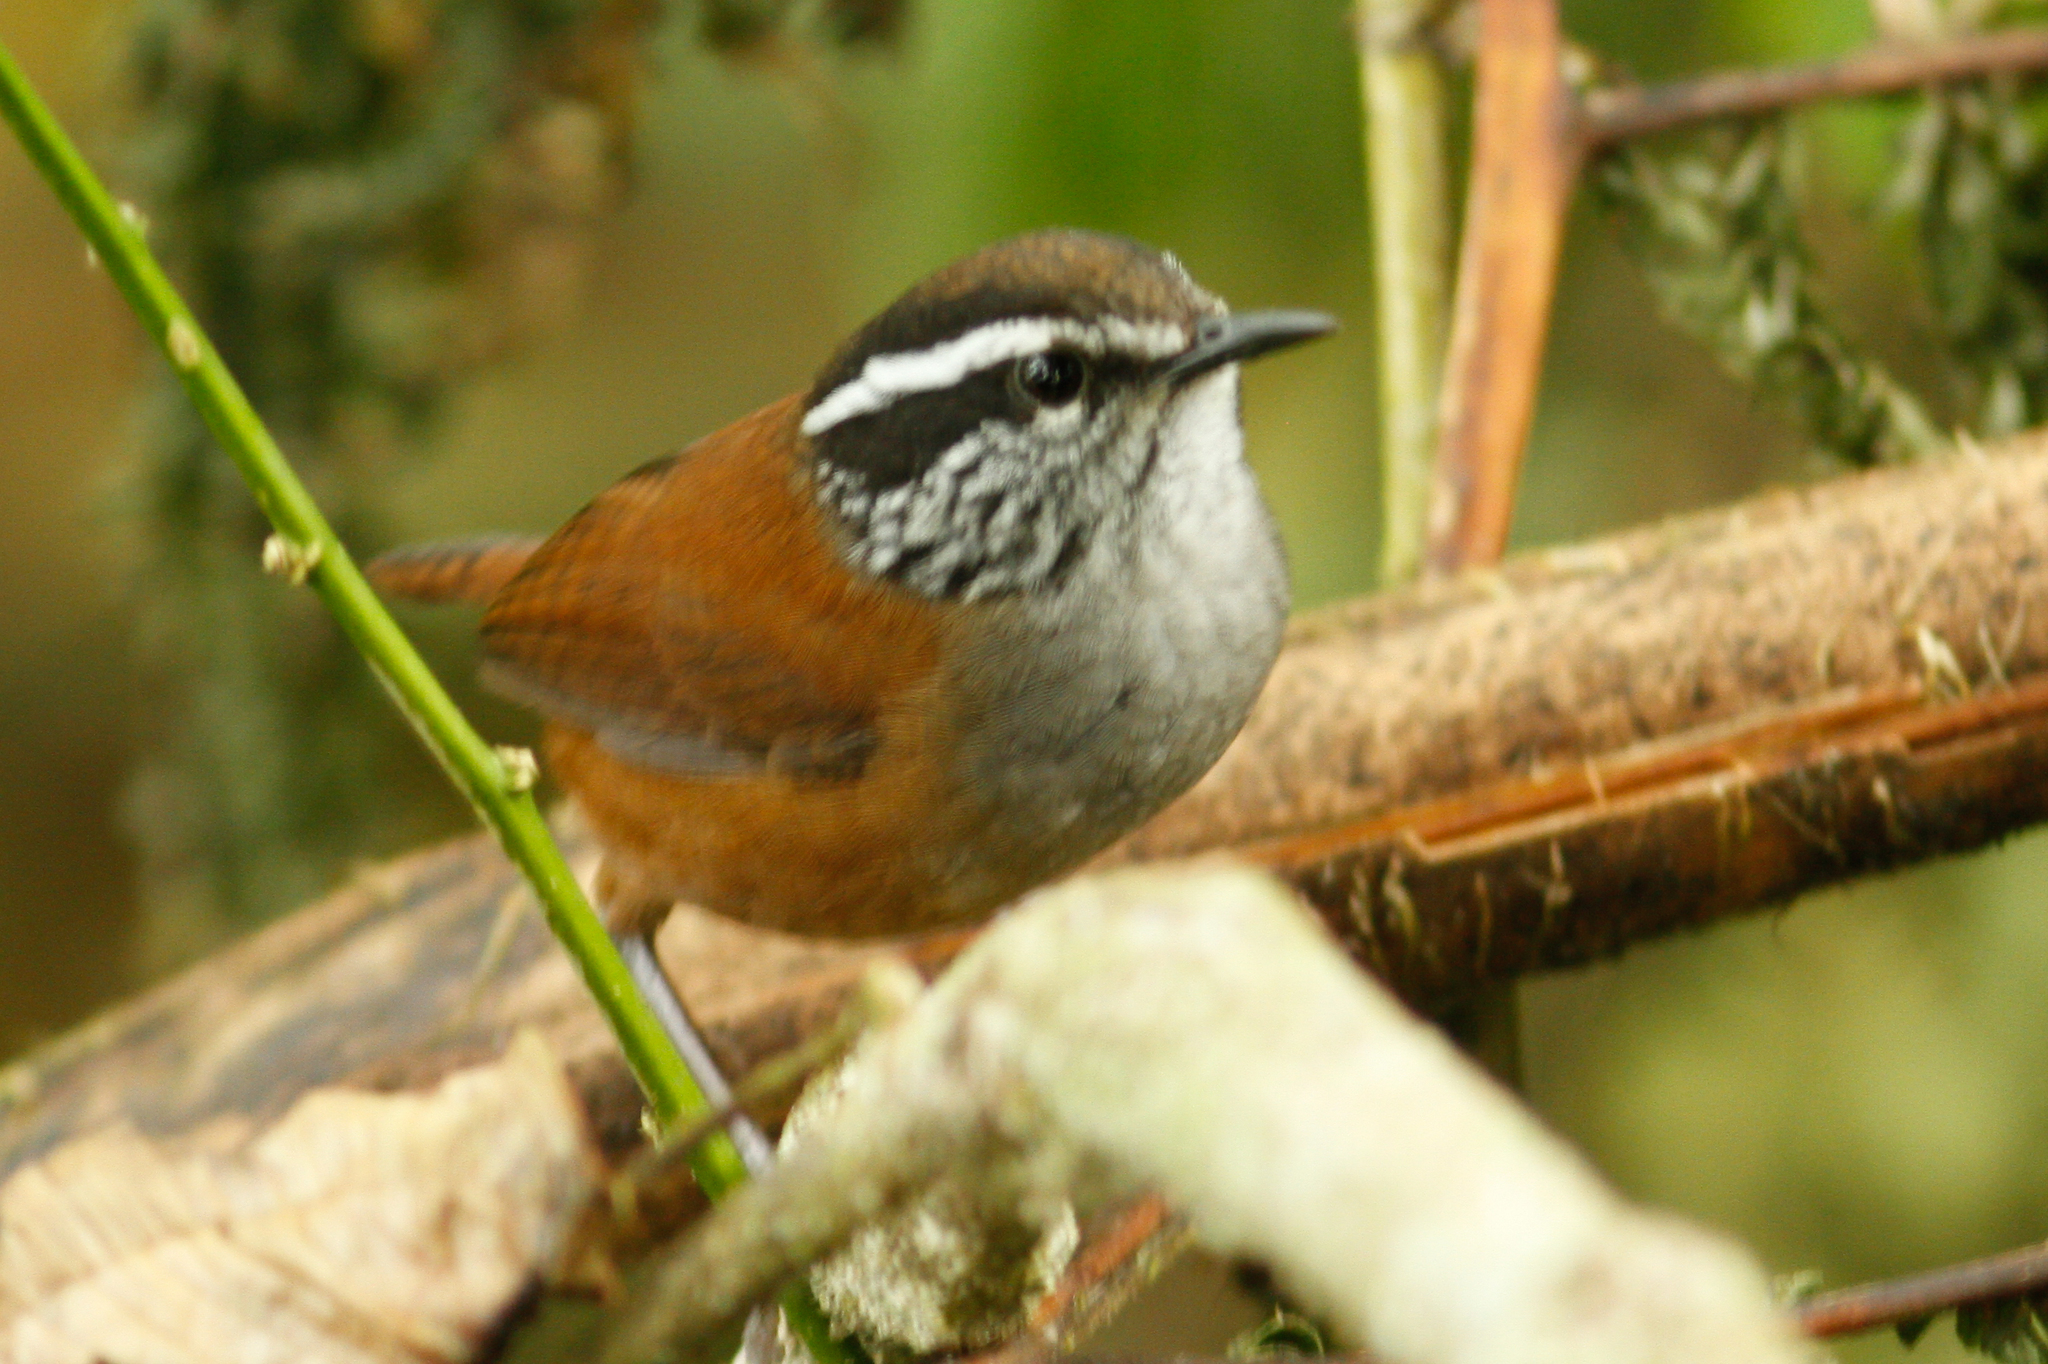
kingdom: Animalia
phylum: Chordata
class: Aves
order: Passeriformes
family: Troglodytidae
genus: Henicorhina
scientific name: Henicorhina leucophrys
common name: Gray-breasted wood-wren
